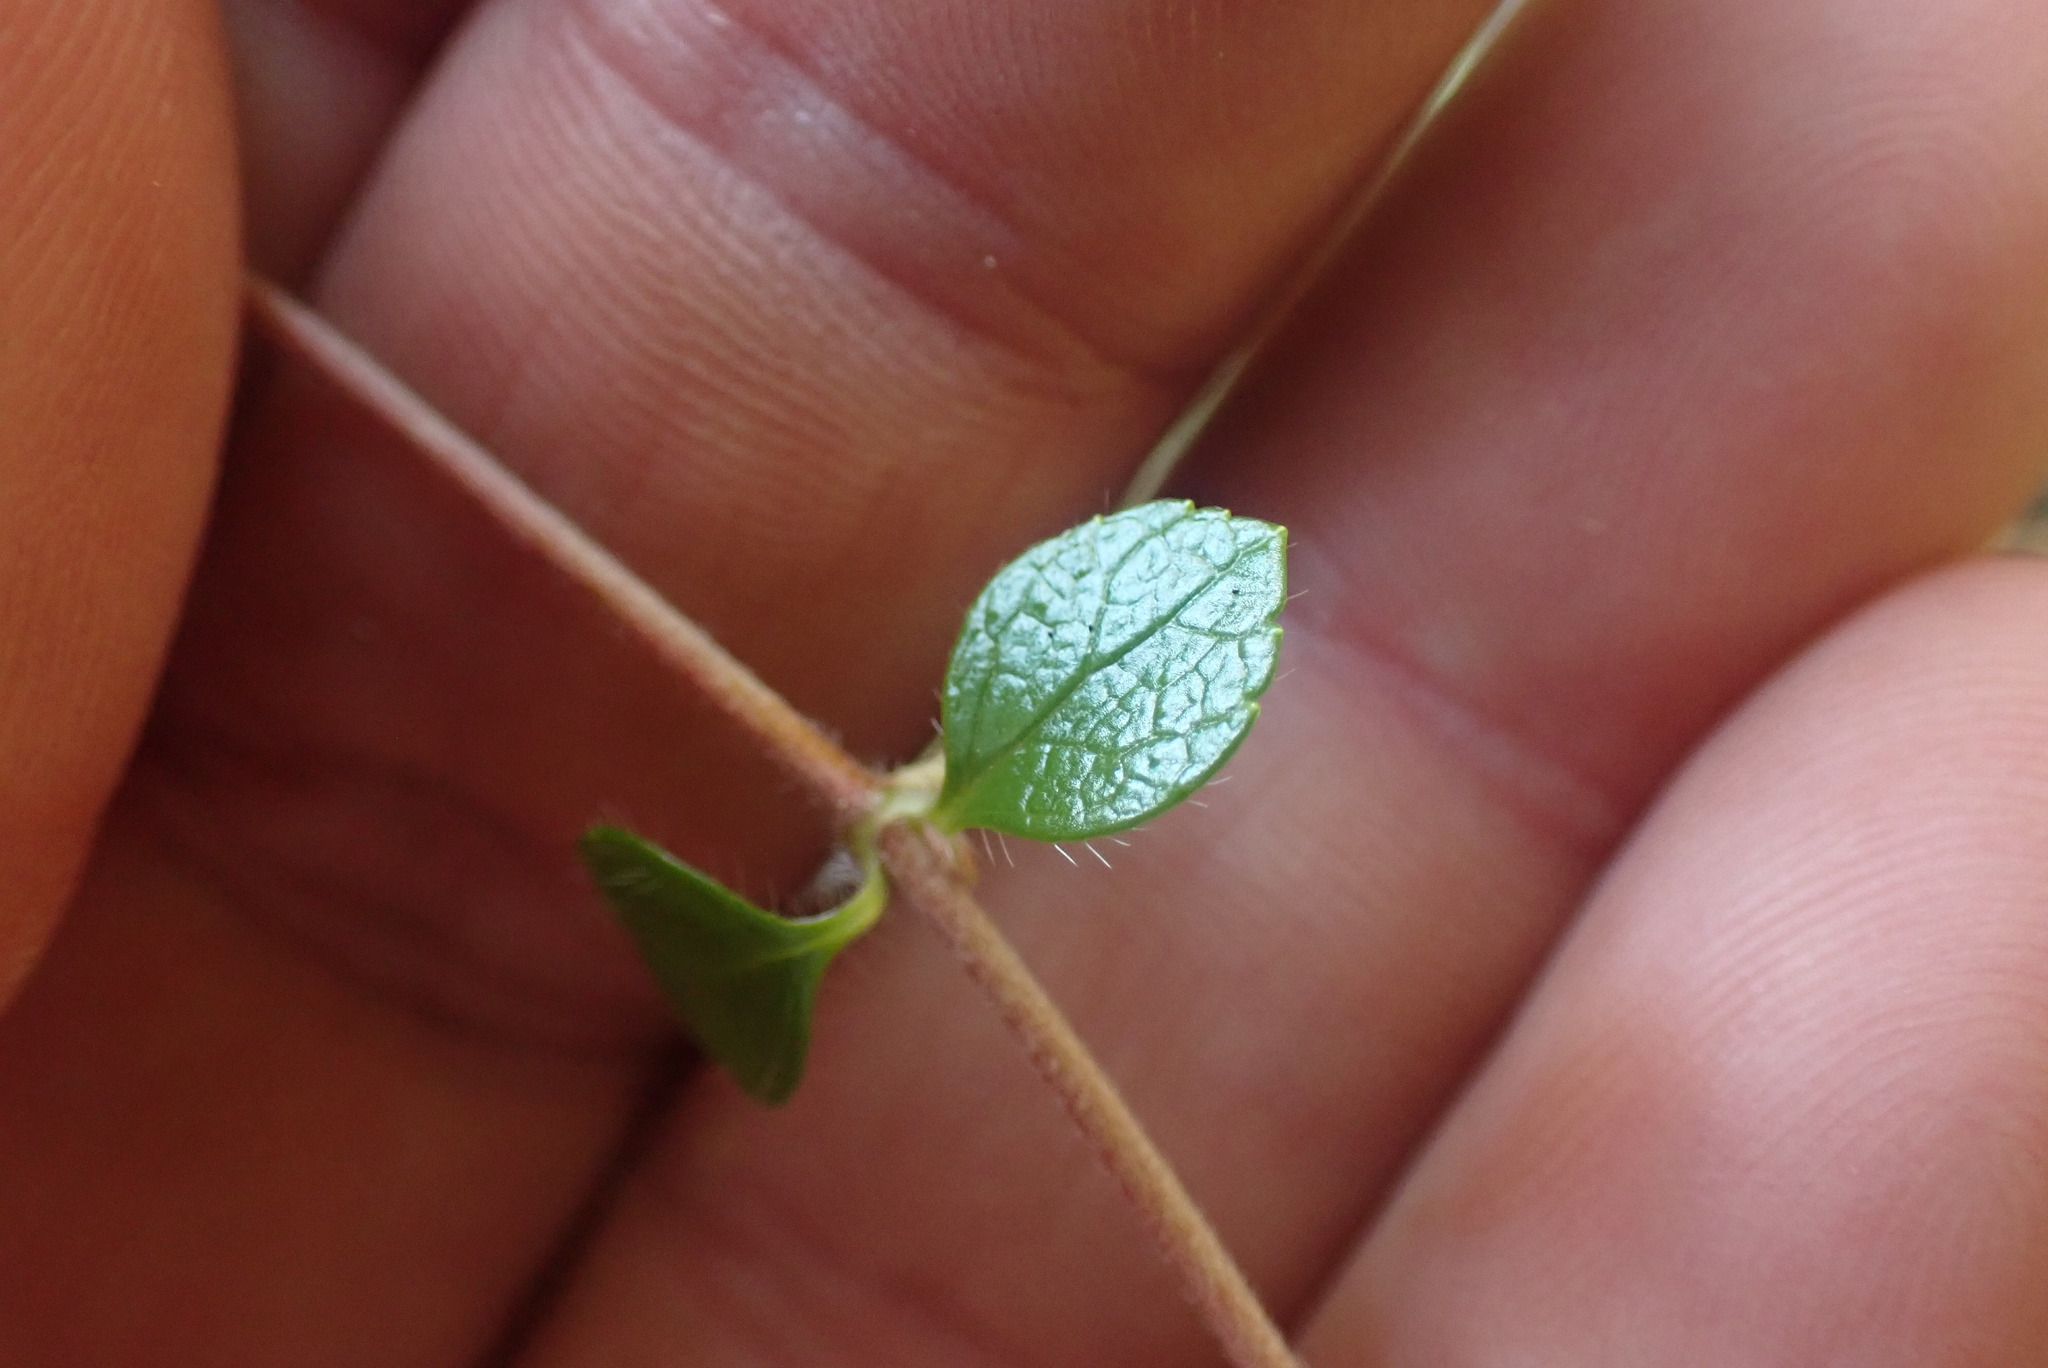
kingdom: Plantae
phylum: Tracheophyta
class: Magnoliopsida
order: Dipsacales
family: Caprifoliaceae
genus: Linnaea
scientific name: Linnaea borealis
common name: Twinflower
